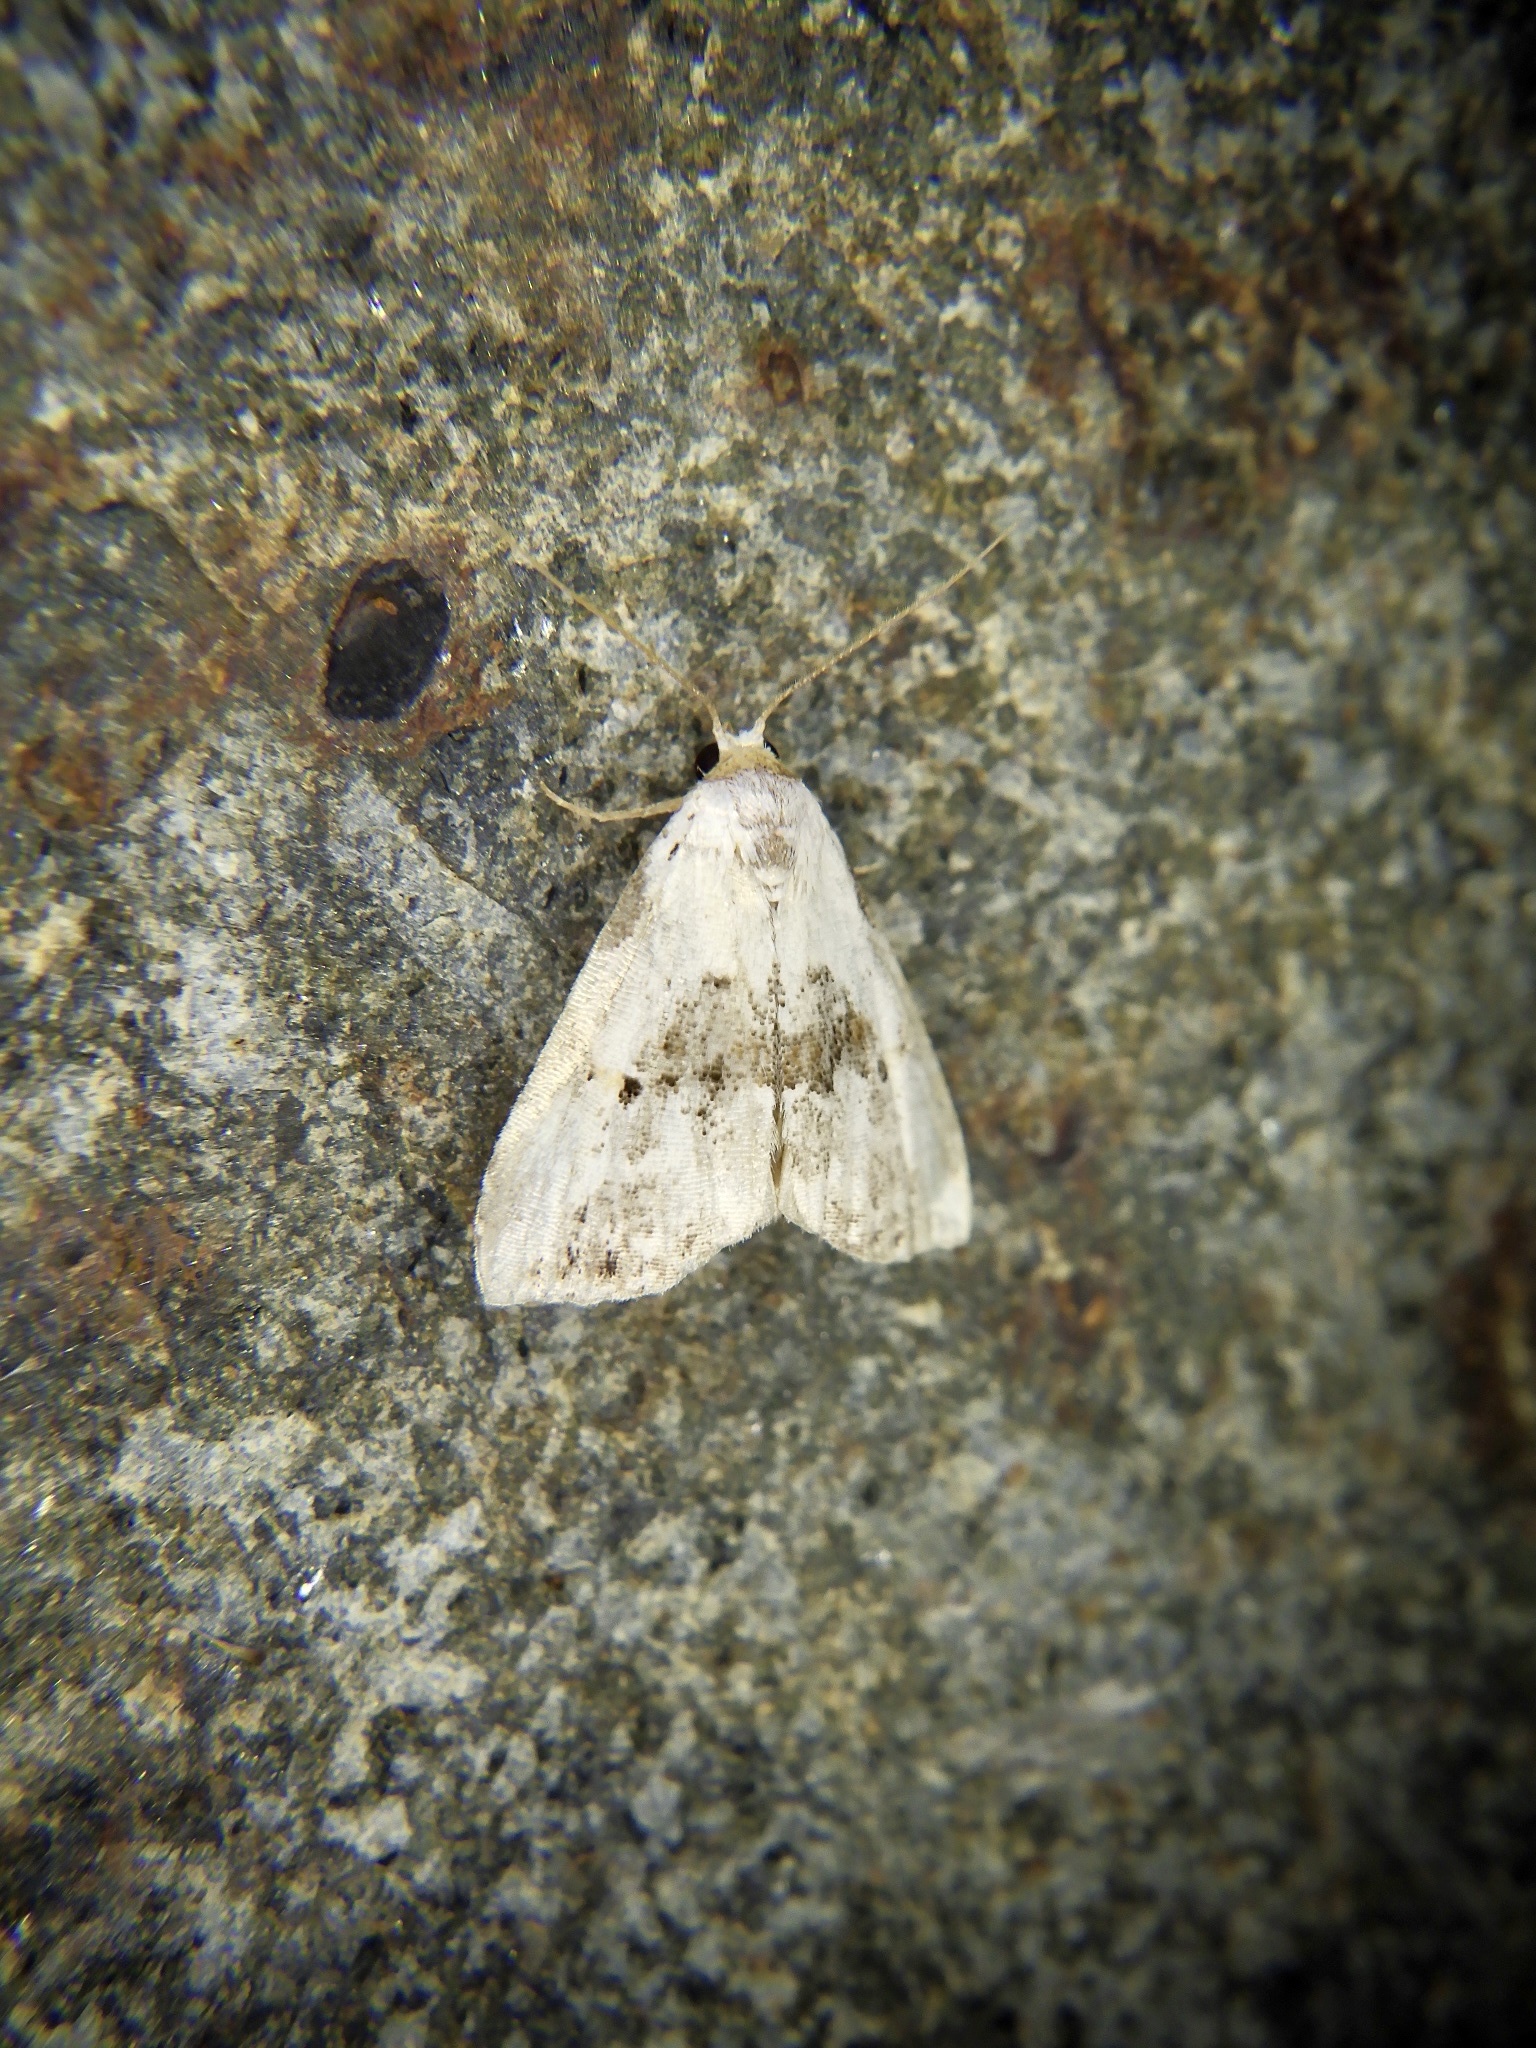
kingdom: Animalia
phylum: Arthropoda
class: Insecta
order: Lepidoptera
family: Erebidae
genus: Chorsia
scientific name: Chorsia noloides
